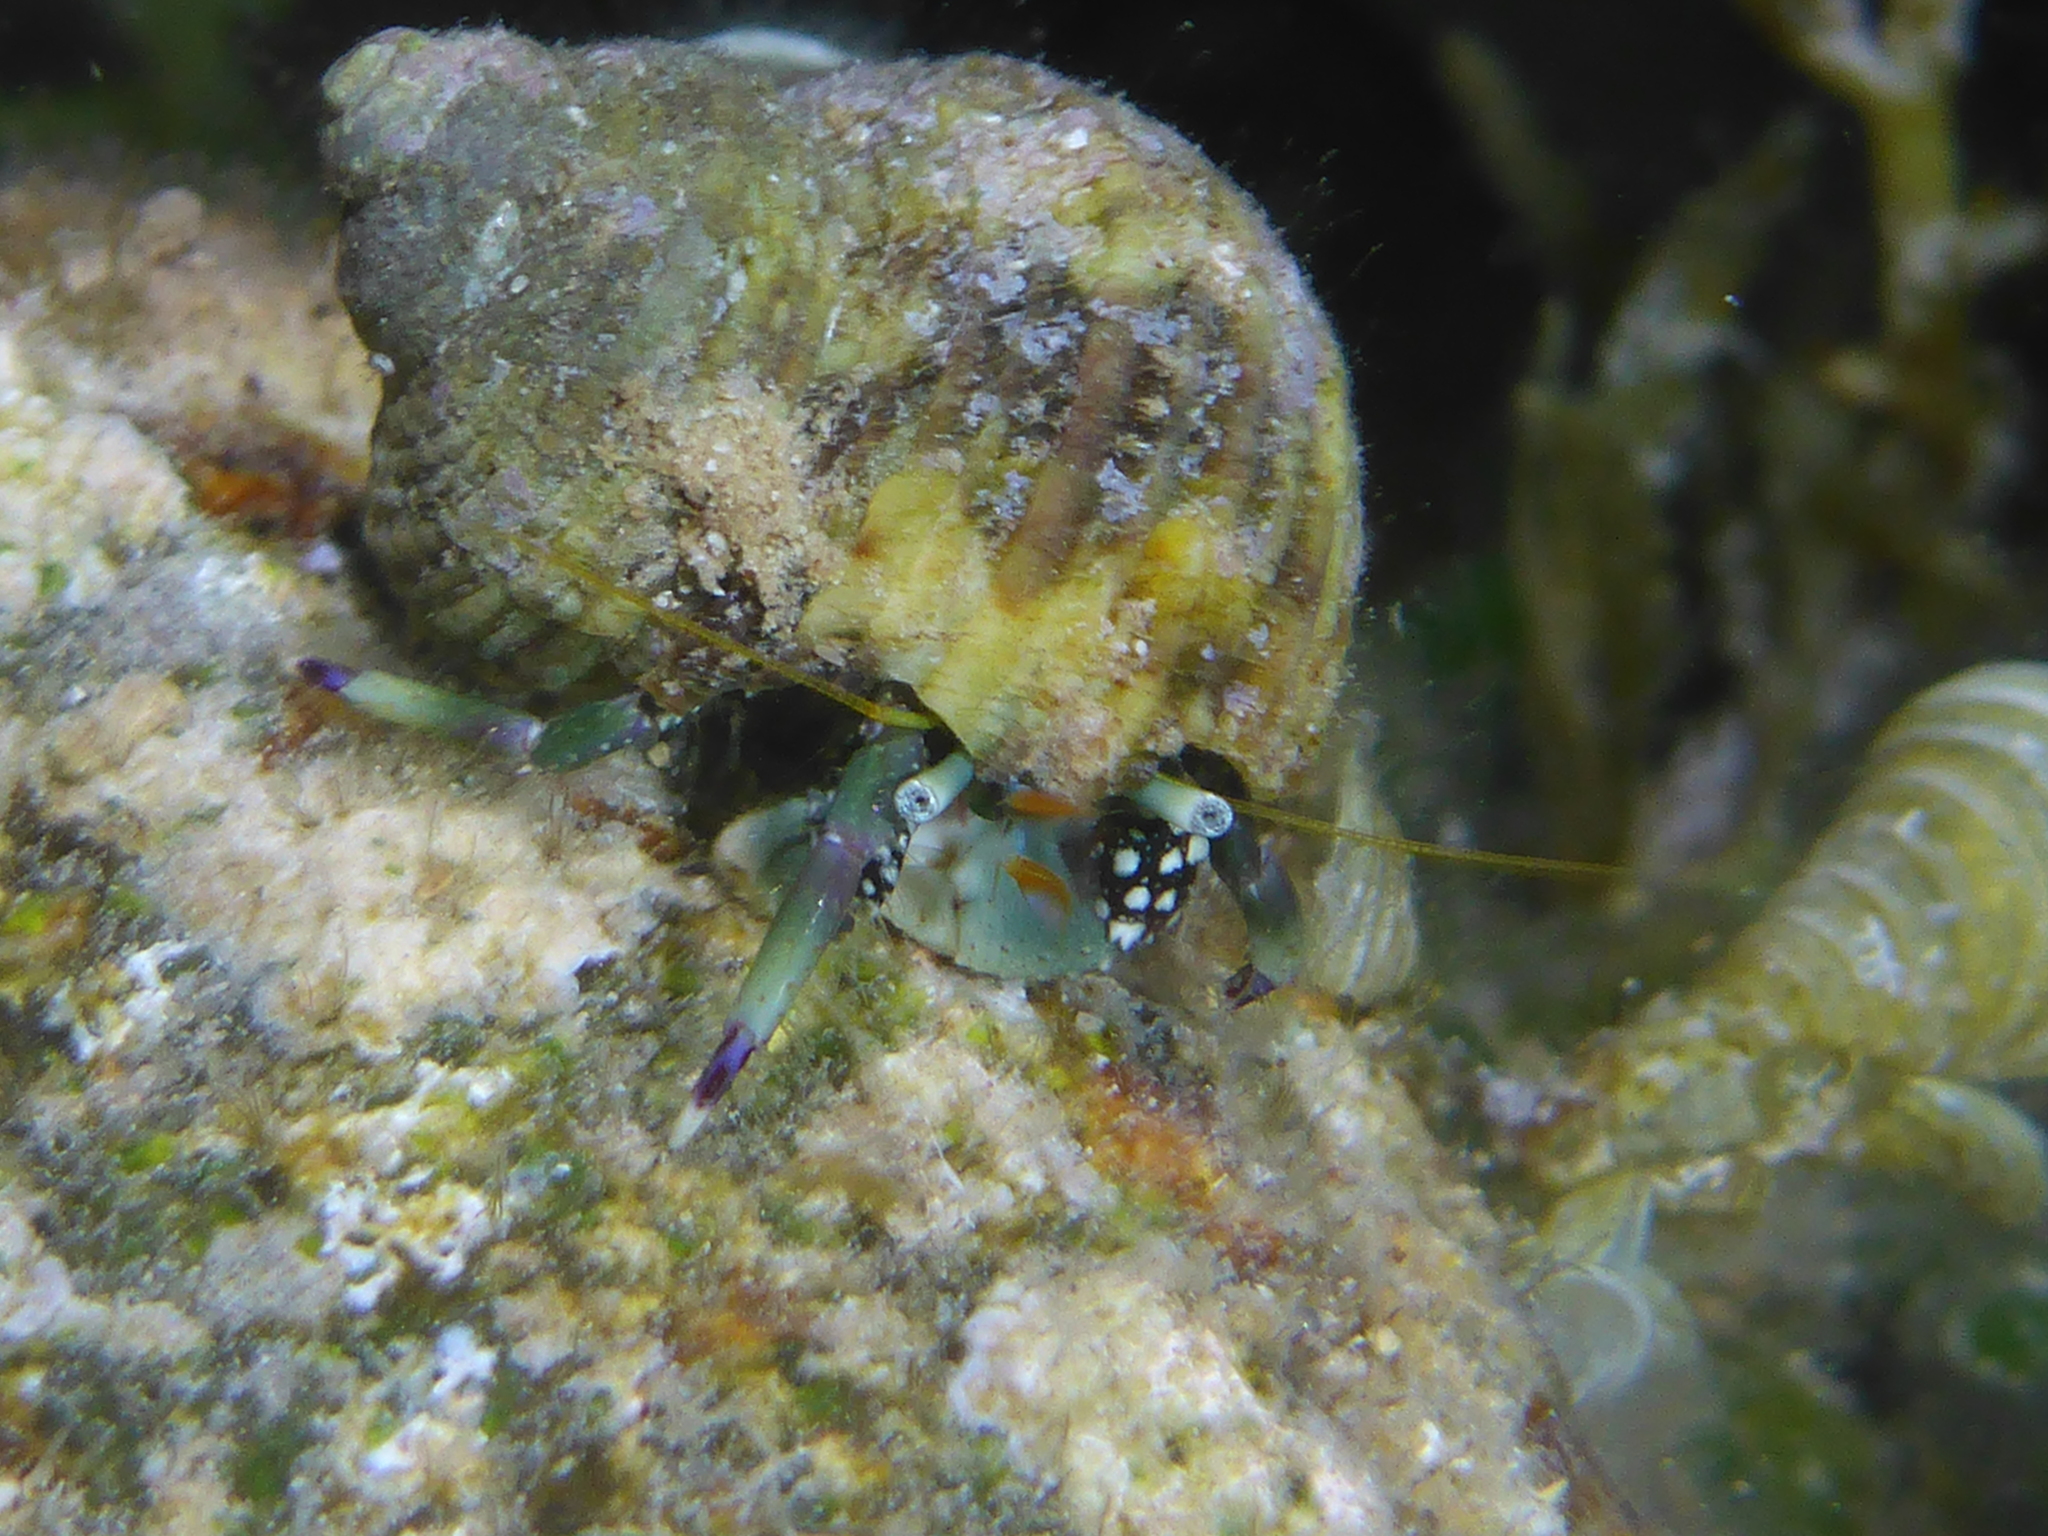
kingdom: Animalia
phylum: Arthropoda
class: Malacostraca
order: Decapoda
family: Diogenidae
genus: Calcinus
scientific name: Calcinus latens
